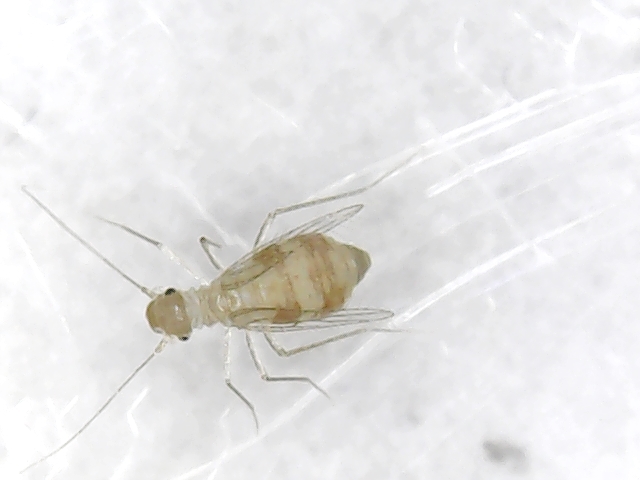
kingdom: Animalia
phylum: Arthropoda
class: Insecta
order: Psocodea
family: Psyllipsocidae
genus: Dorypteryx
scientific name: Dorypteryx domestica
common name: Cave barklouse
